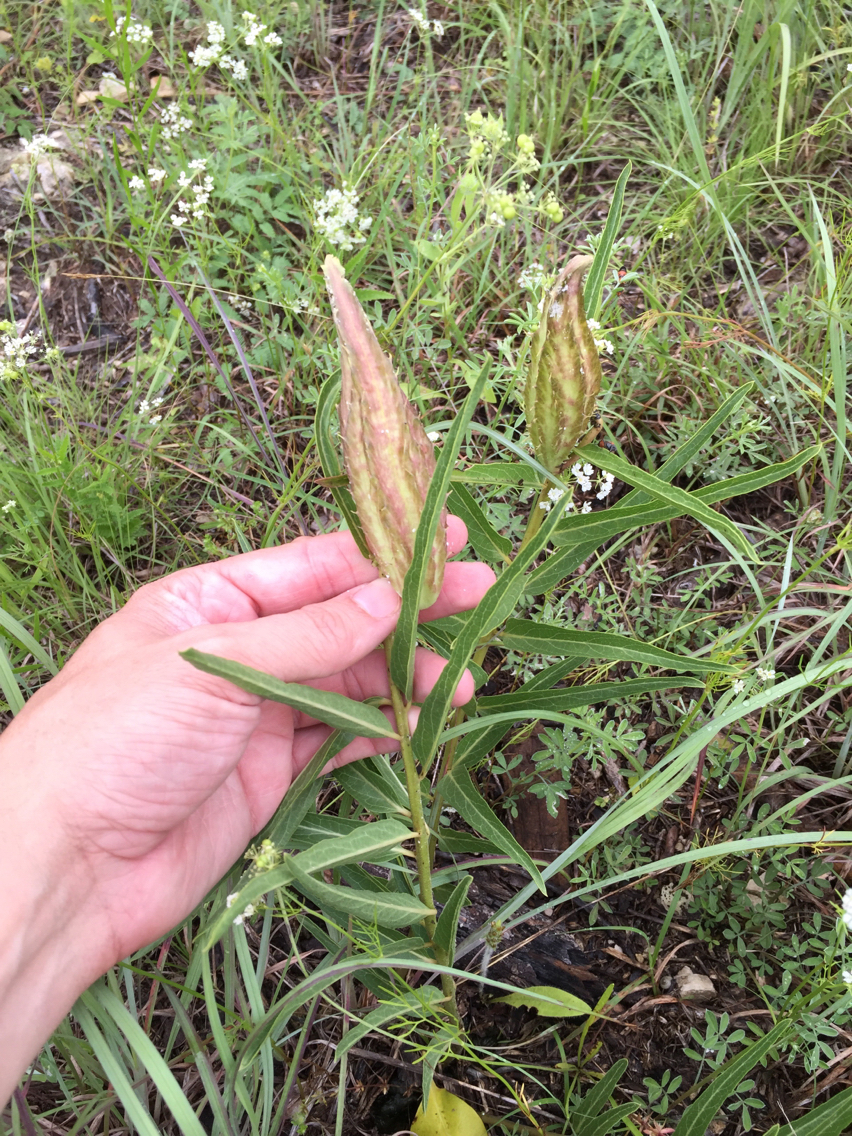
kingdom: Plantae
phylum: Tracheophyta
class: Magnoliopsida
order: Gentianales
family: Apocynaceae
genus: Asclepias
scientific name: Asclepias asperula
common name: Antelope horns
